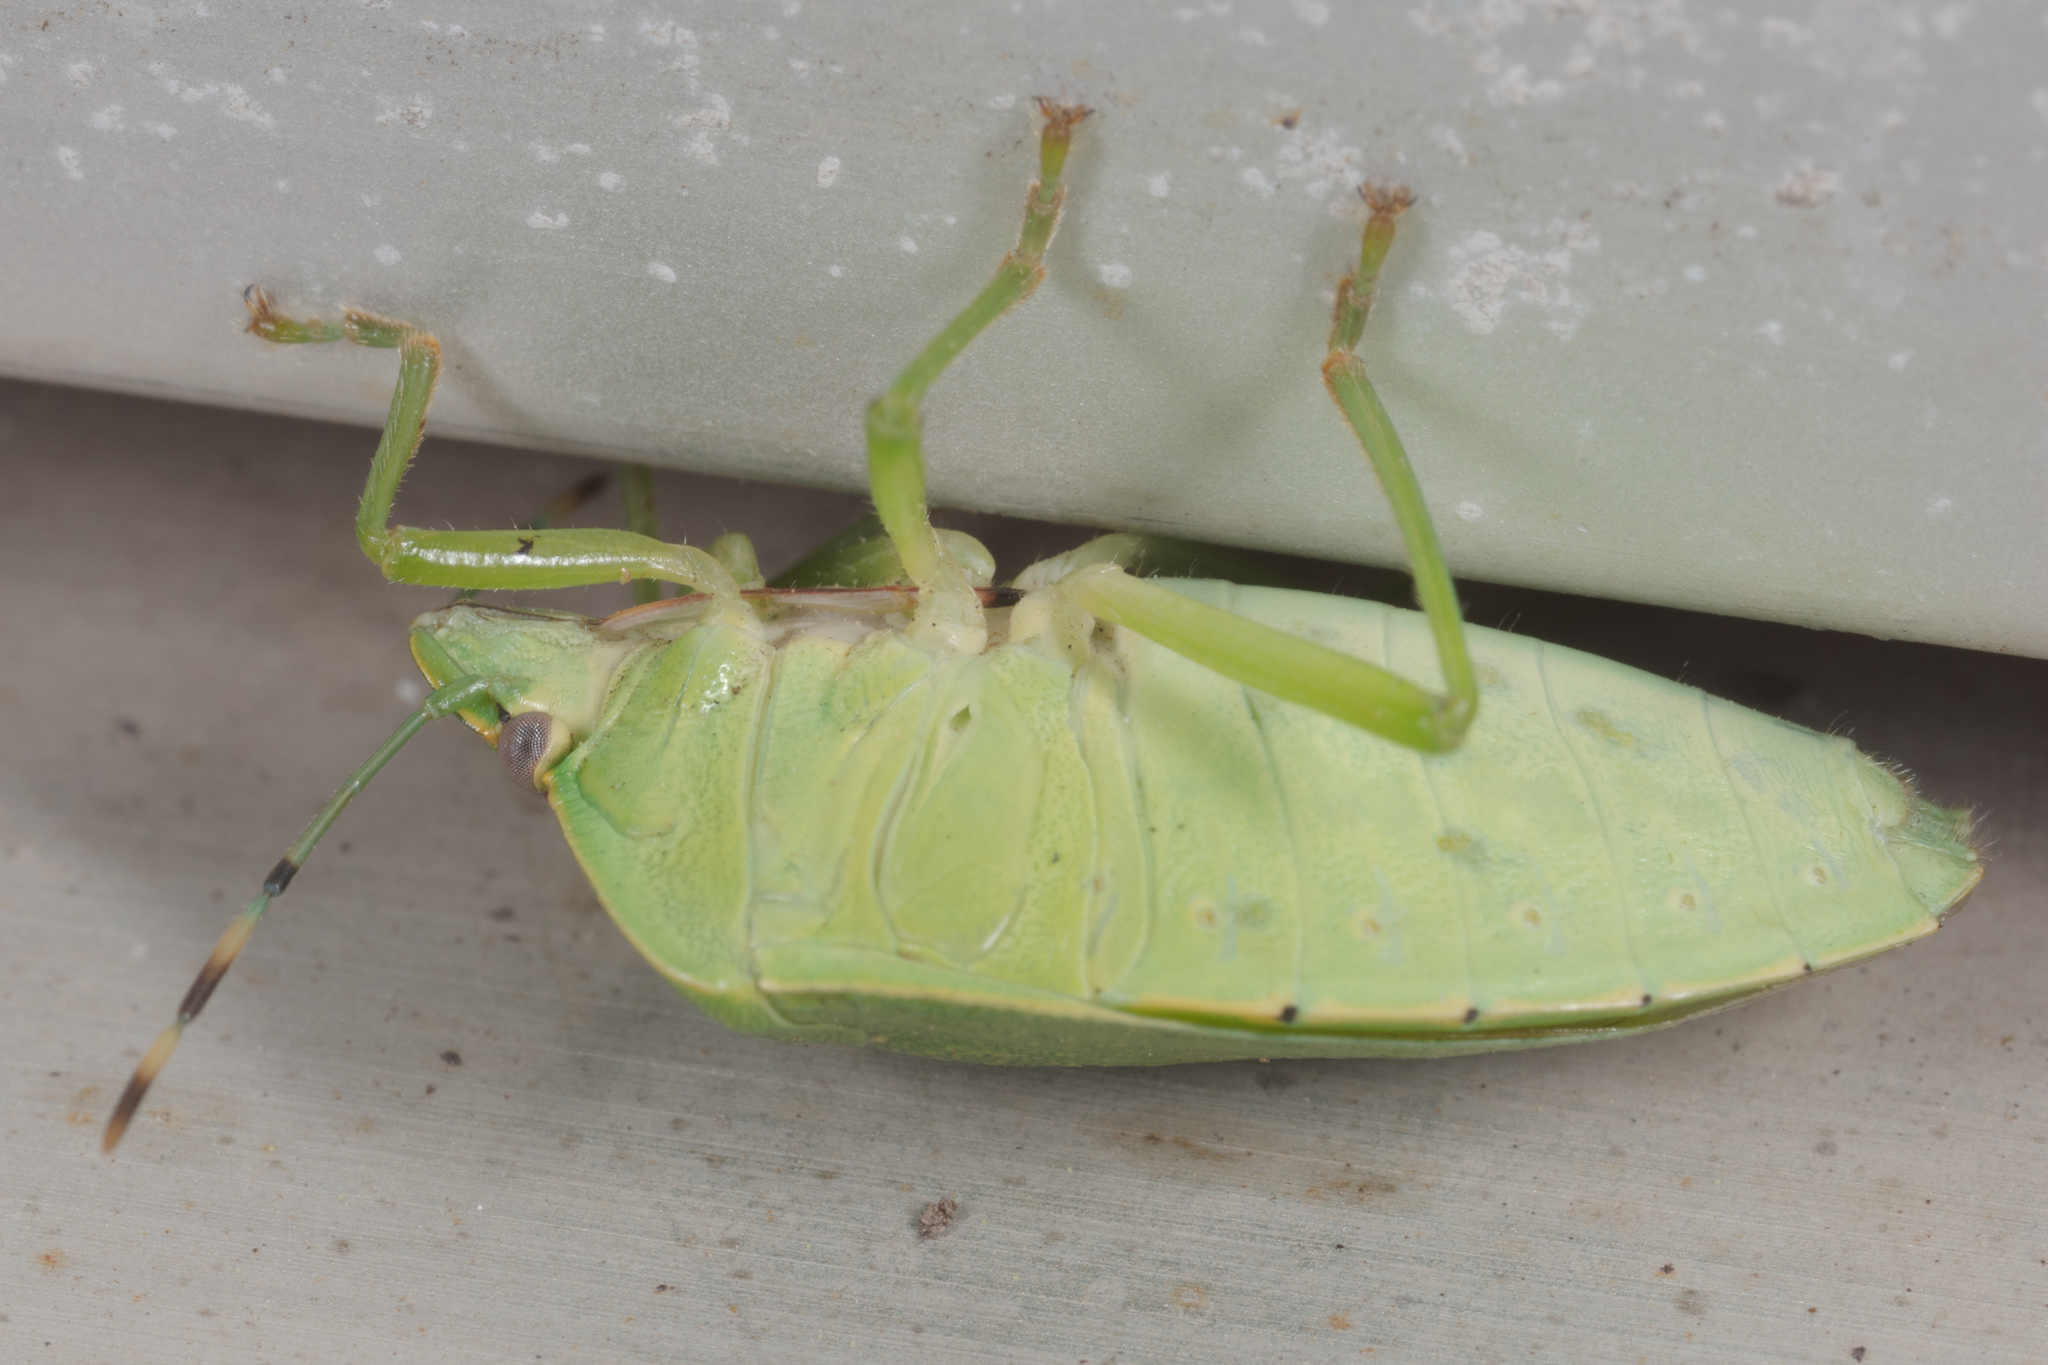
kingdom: Animalia
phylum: Arthropoda
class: Insecta
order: Hemiptera
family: Pentatomidae
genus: Chinavia
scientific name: Chinavia hilaris
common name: Green stink bug
